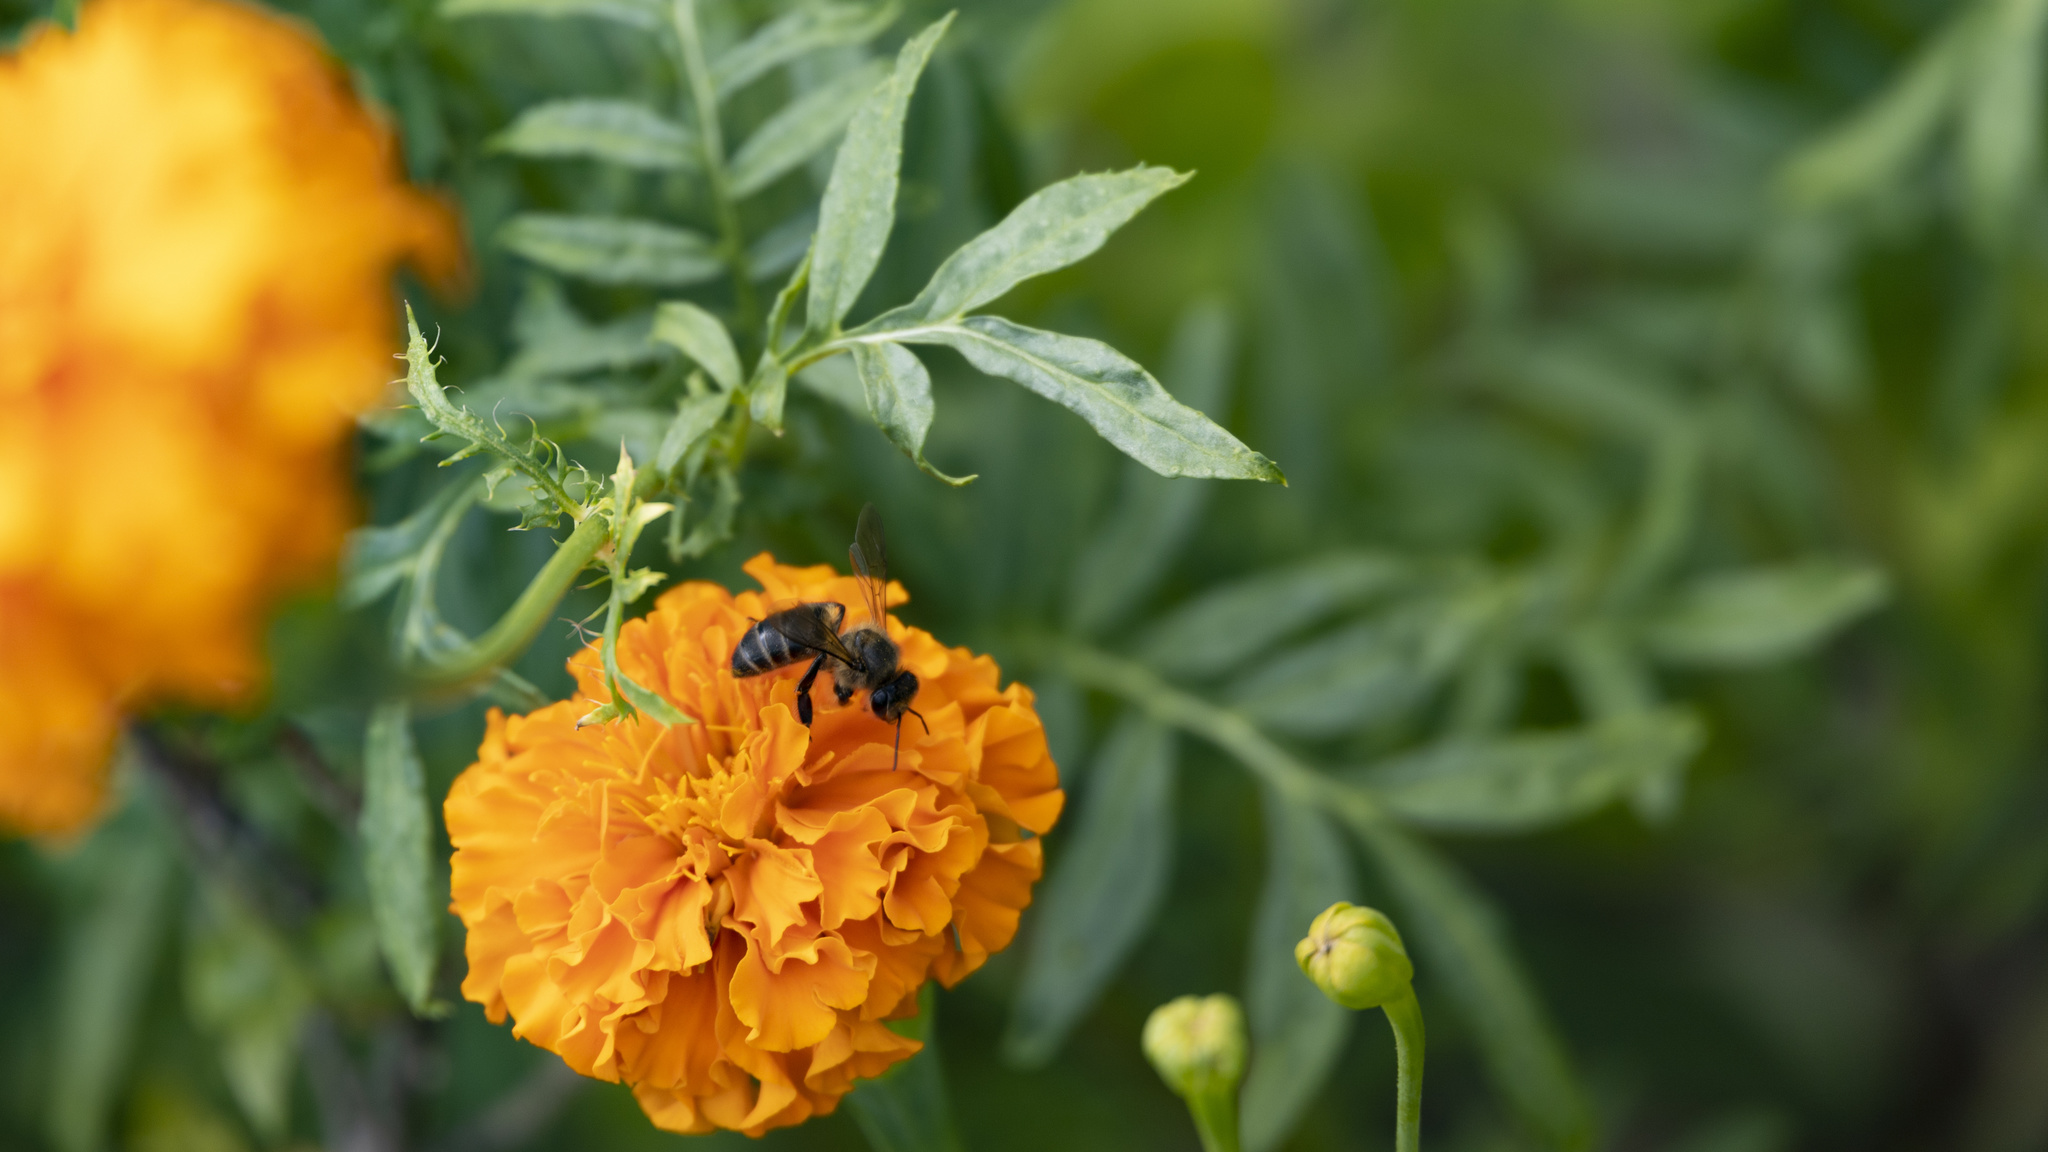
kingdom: Animalia
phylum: Arthropoda
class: Insecta
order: Hymenoptera
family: Apidae
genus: Apis
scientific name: Apis mellifera
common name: Honey bee
